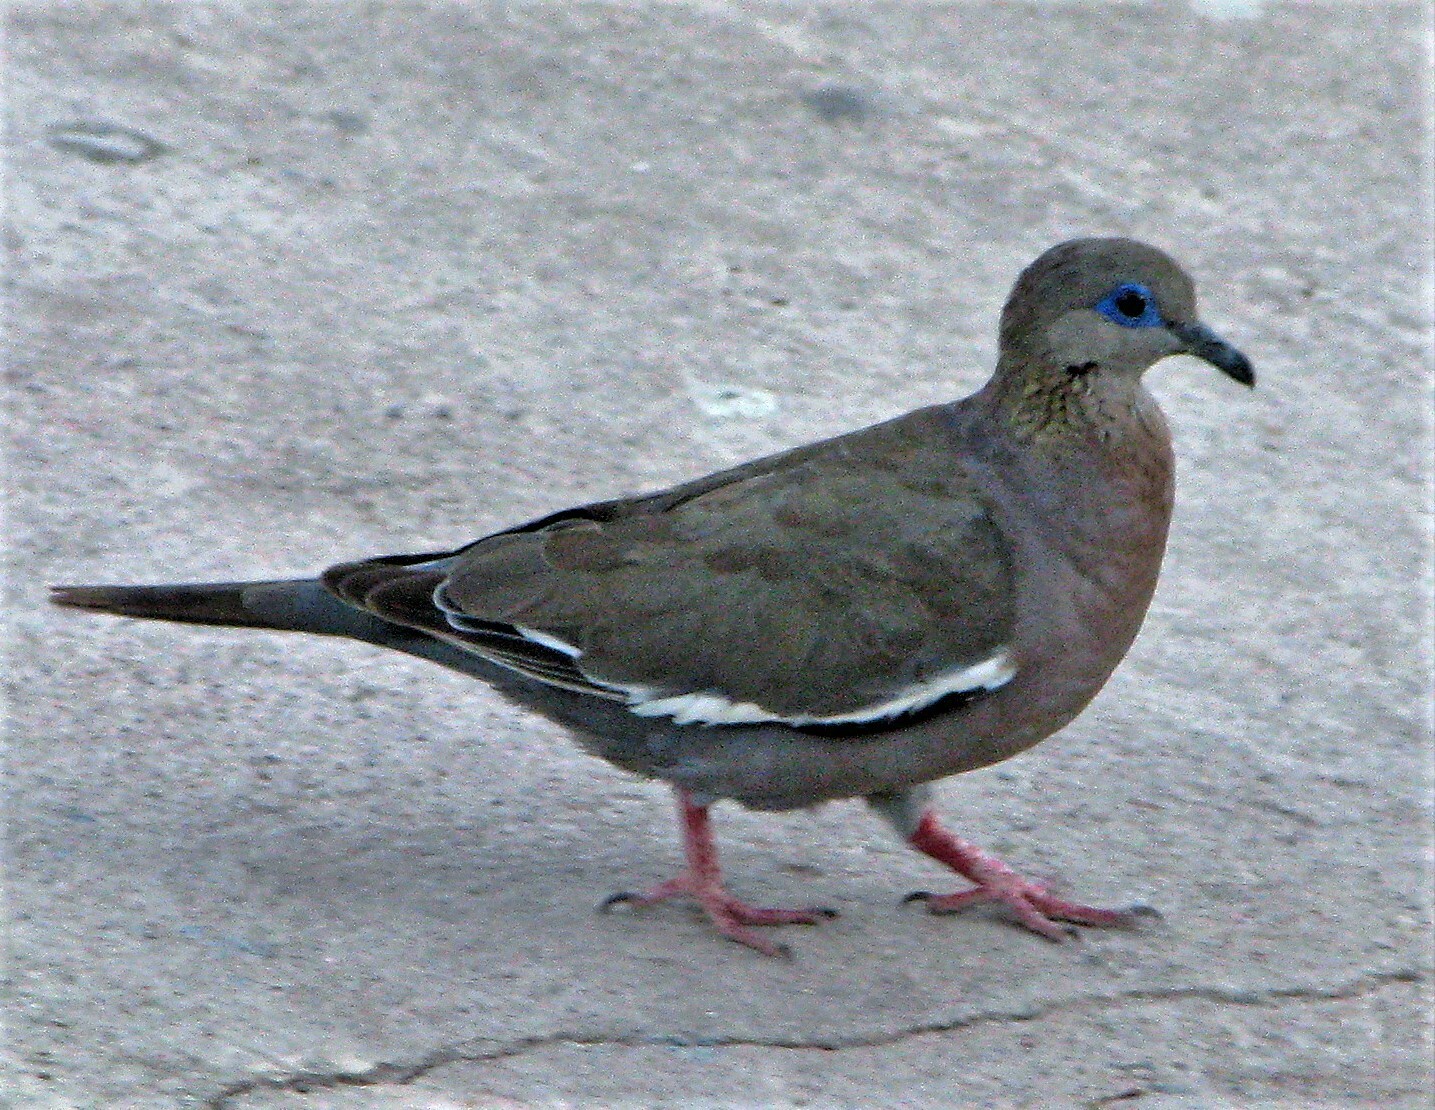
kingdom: Animalia
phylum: Chordata
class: Aves
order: Columbiformes
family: Columbidae
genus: Zenaida
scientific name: Zenaida meloda
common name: West peruvian dove
